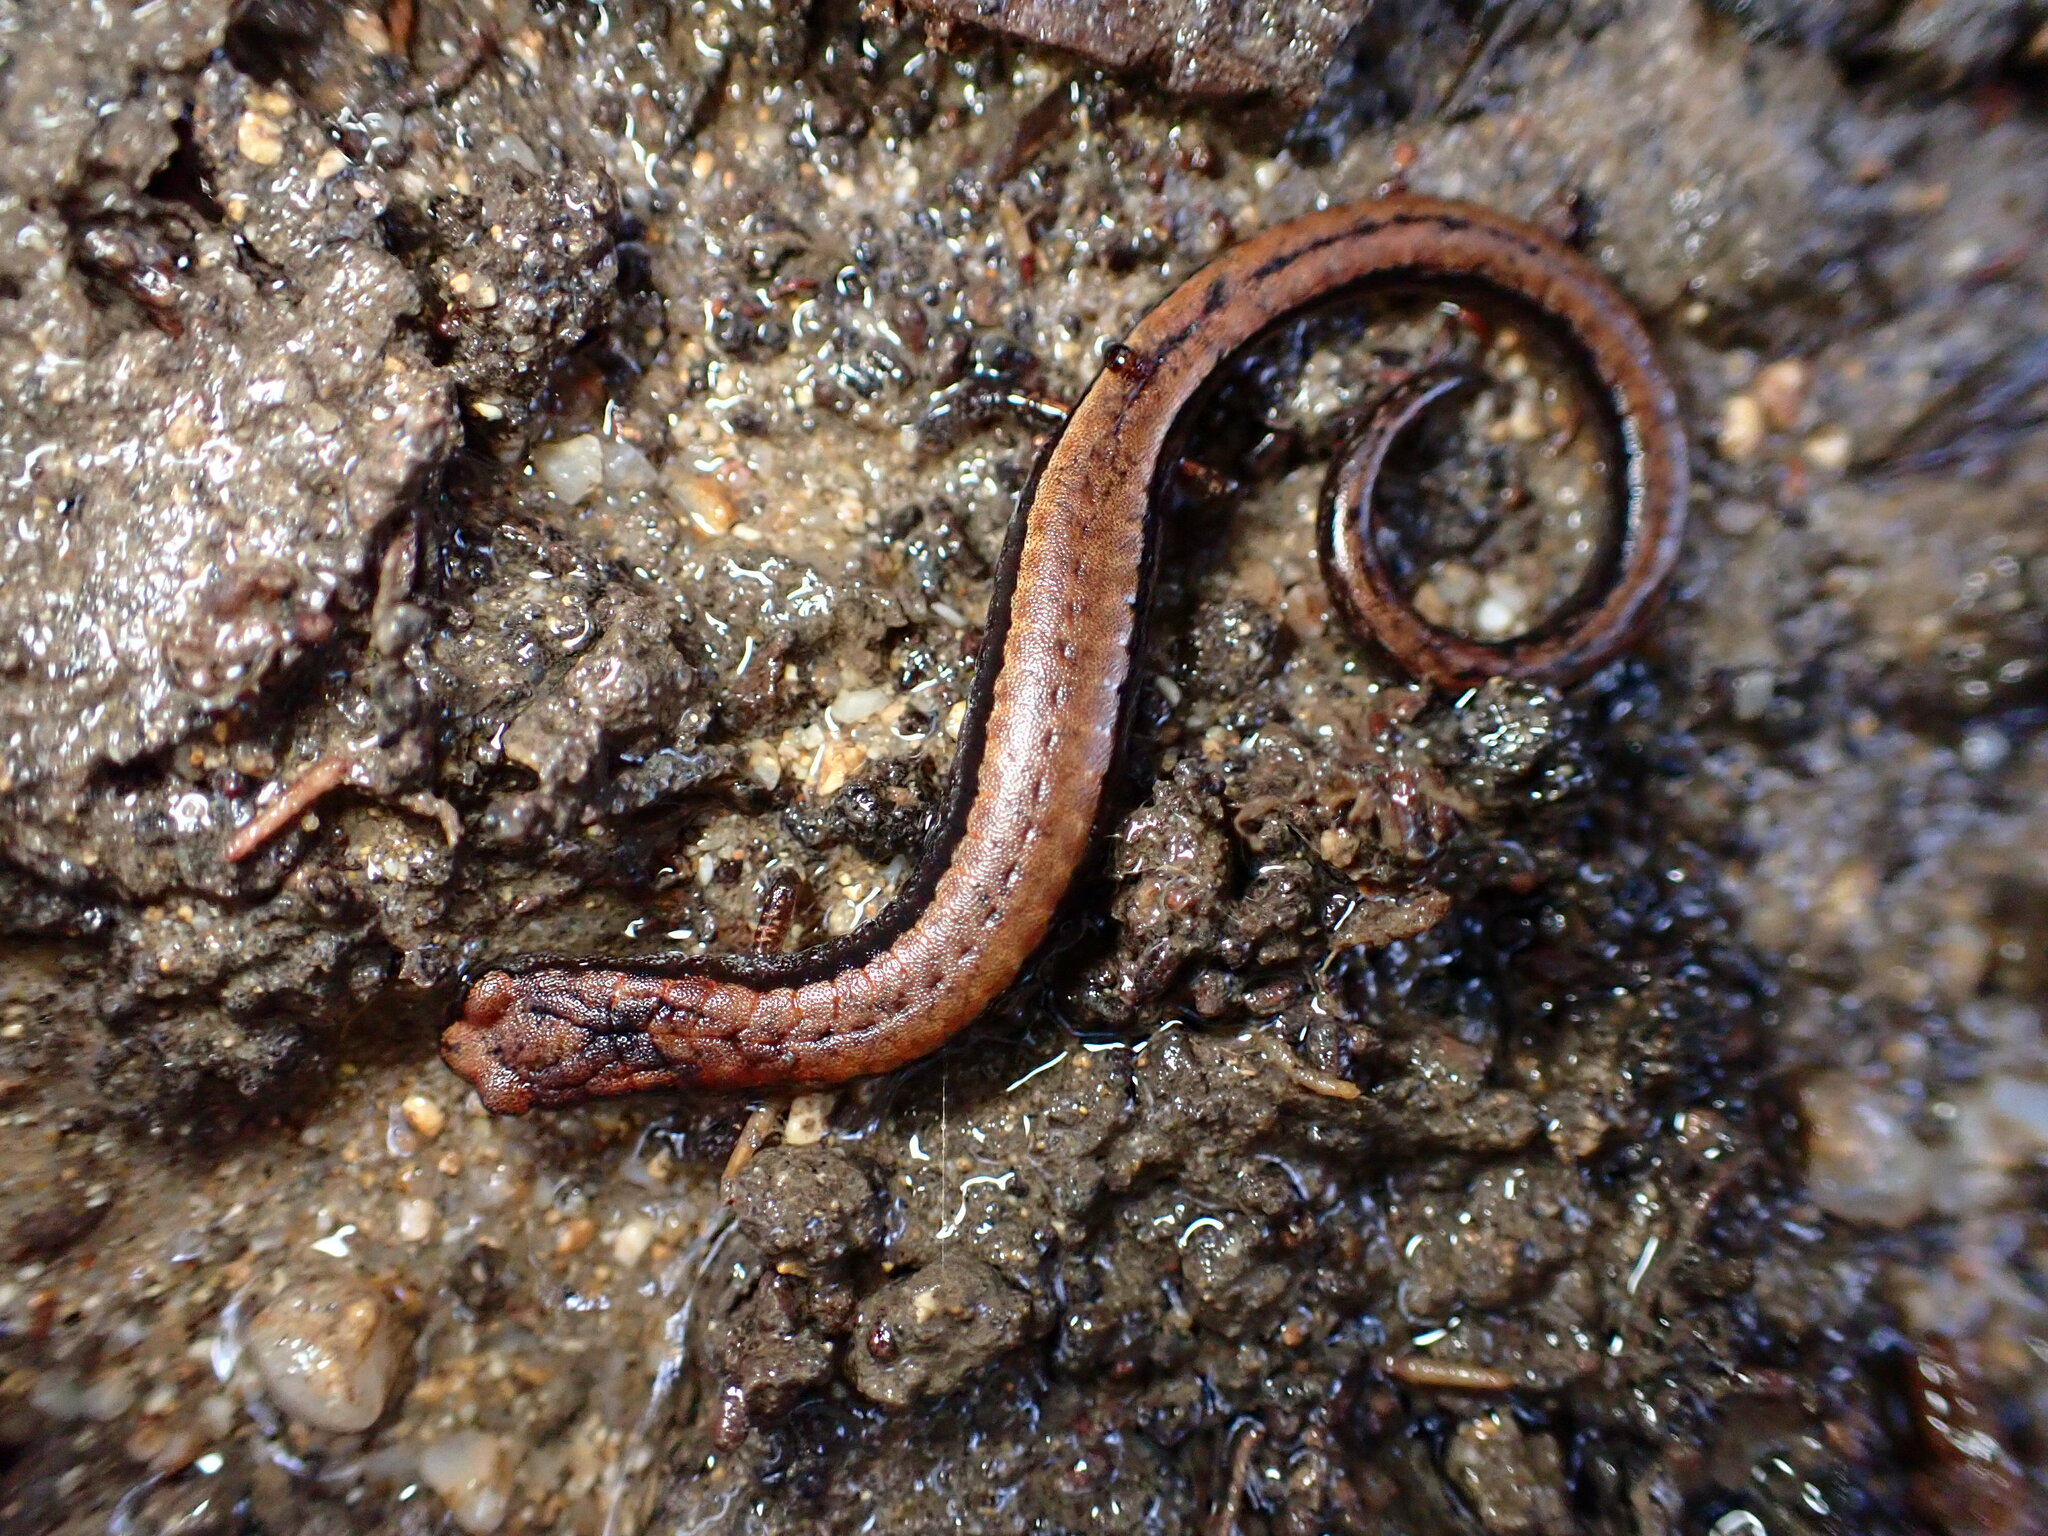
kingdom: Animalia
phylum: Chordata
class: Amphibia
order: Caudata
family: Plethodontidae
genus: Batrachoseps
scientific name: Batrachoseps attenuatus
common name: California slender salamander
